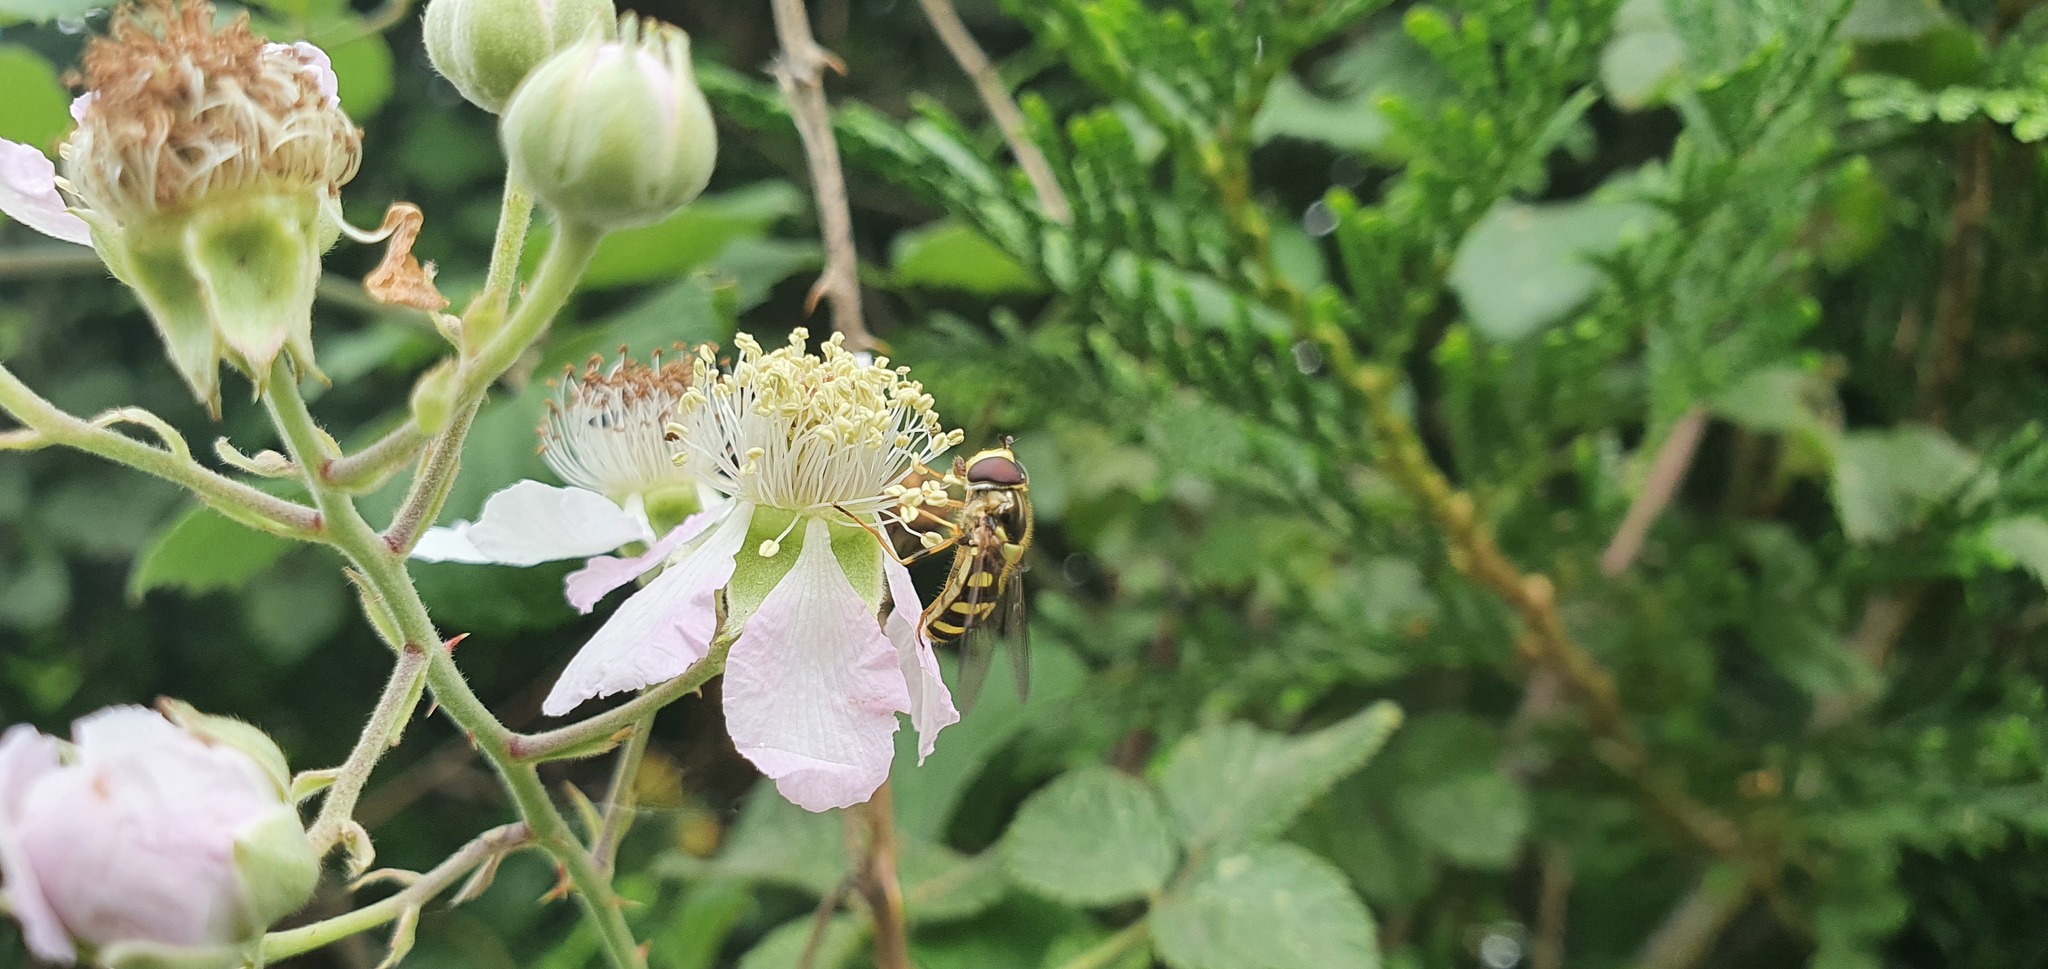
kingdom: Animalia
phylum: Arthropoda
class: Insecta
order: Diptera
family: Syrphidae
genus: Dasysyrphus
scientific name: Dasysyrphus albostriatus
